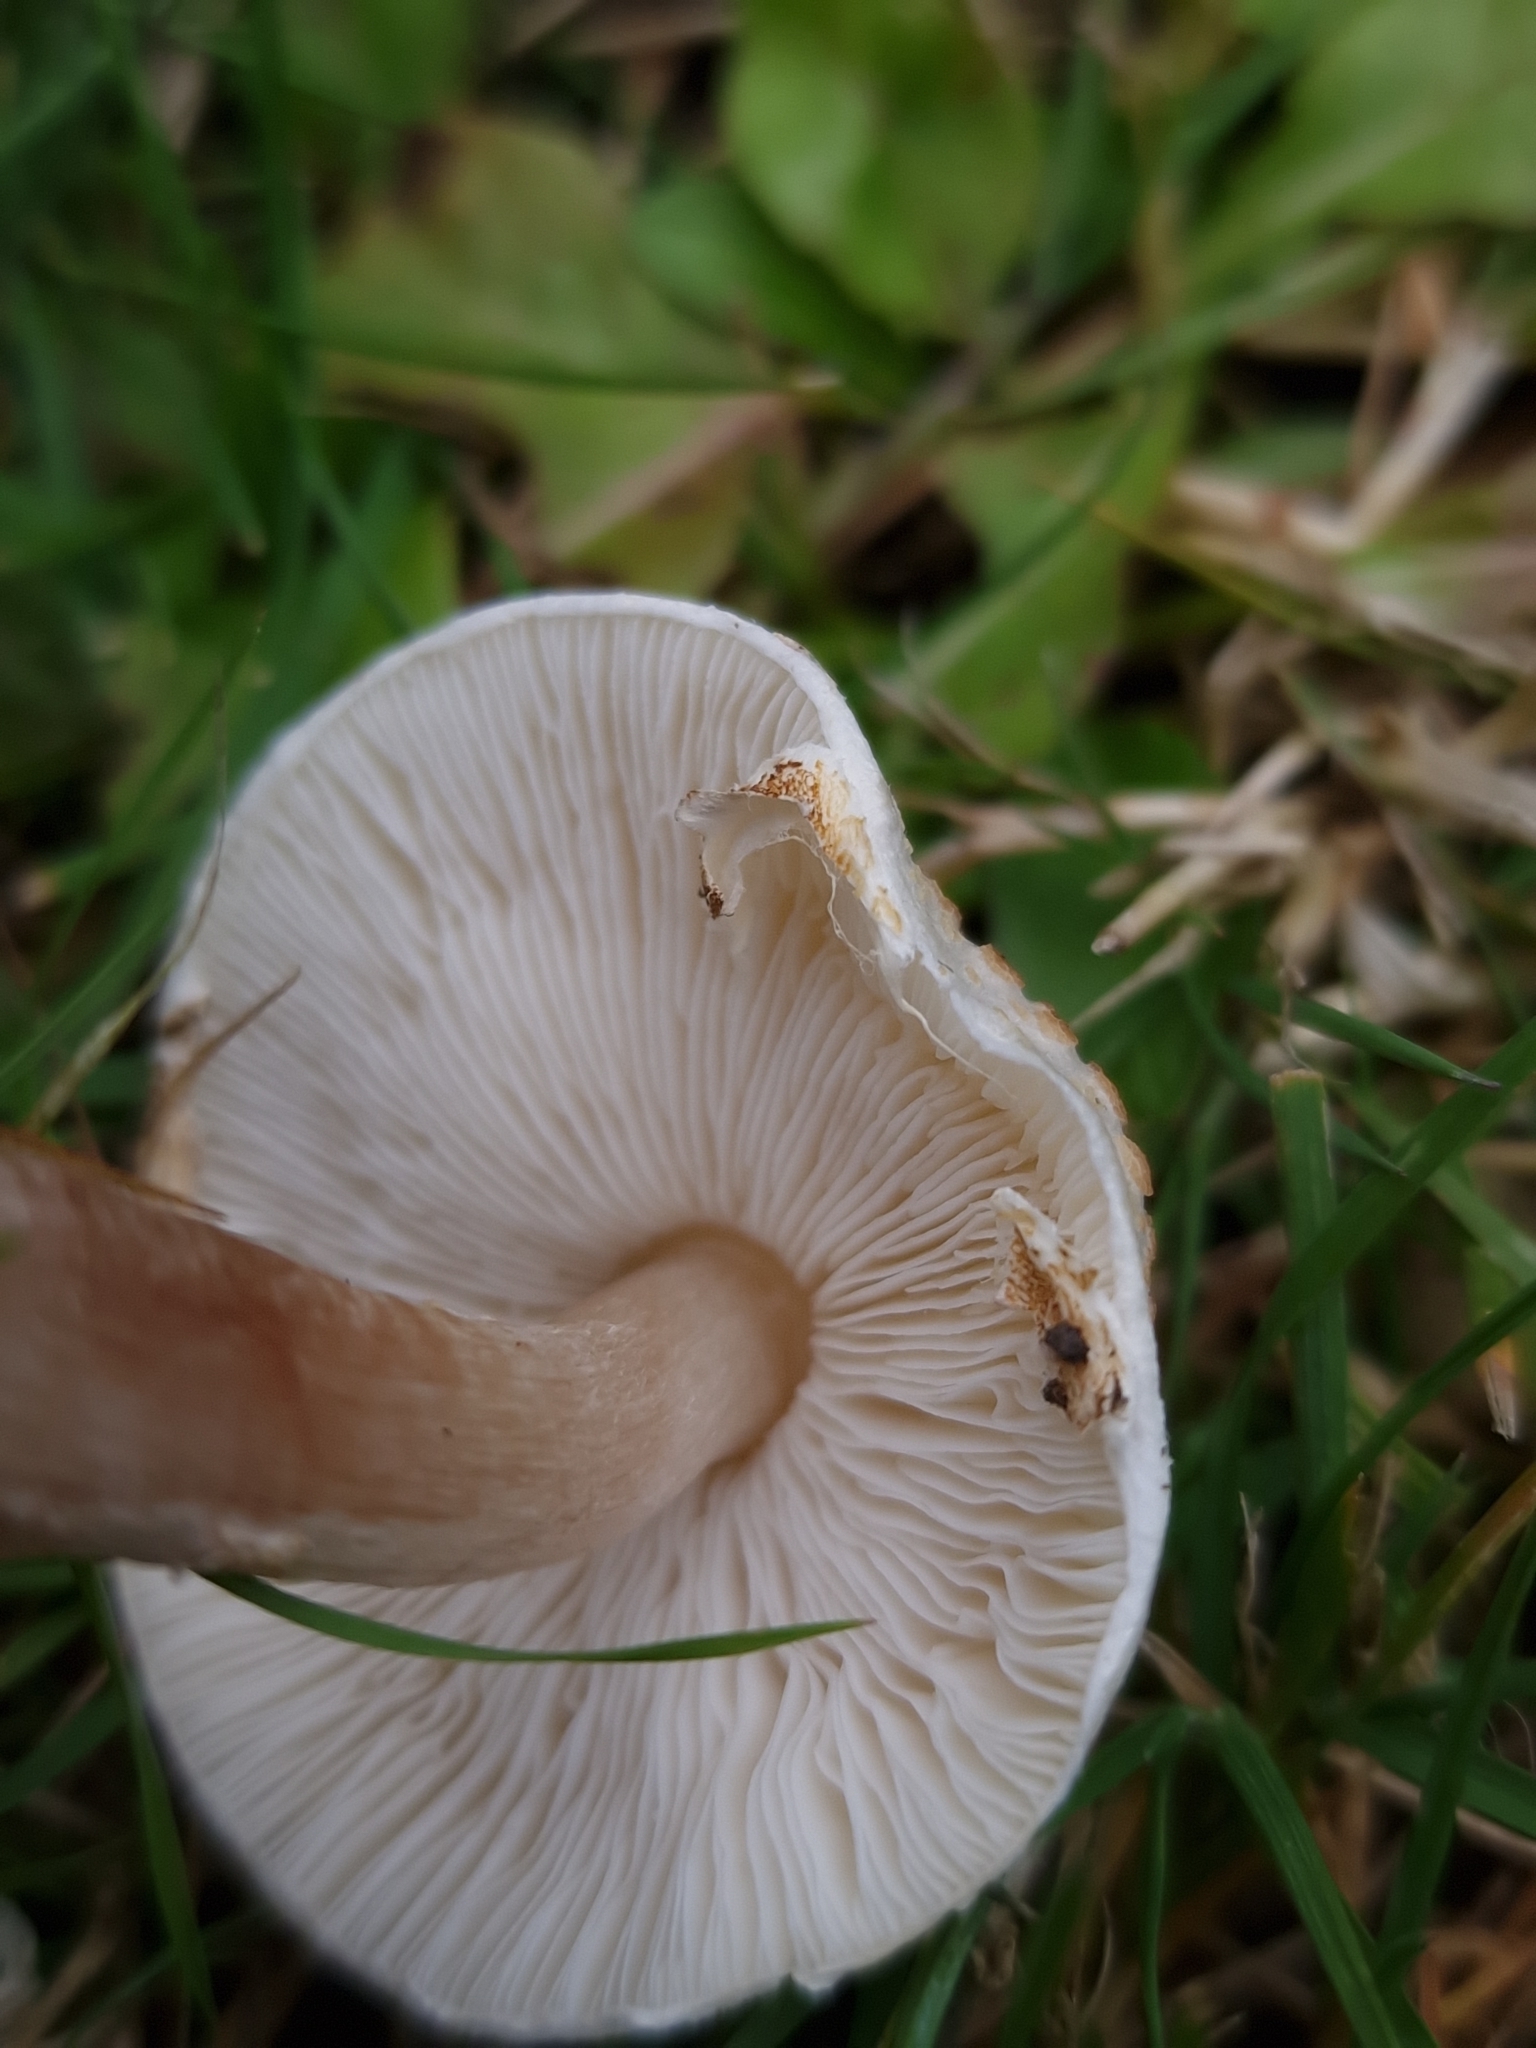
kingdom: Fungi
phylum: Basidiomycota
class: Agaricomycetes
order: Agaricales
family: Agaricaceae
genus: Lepiota
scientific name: Lepiota cristata
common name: Stinking dapperling
